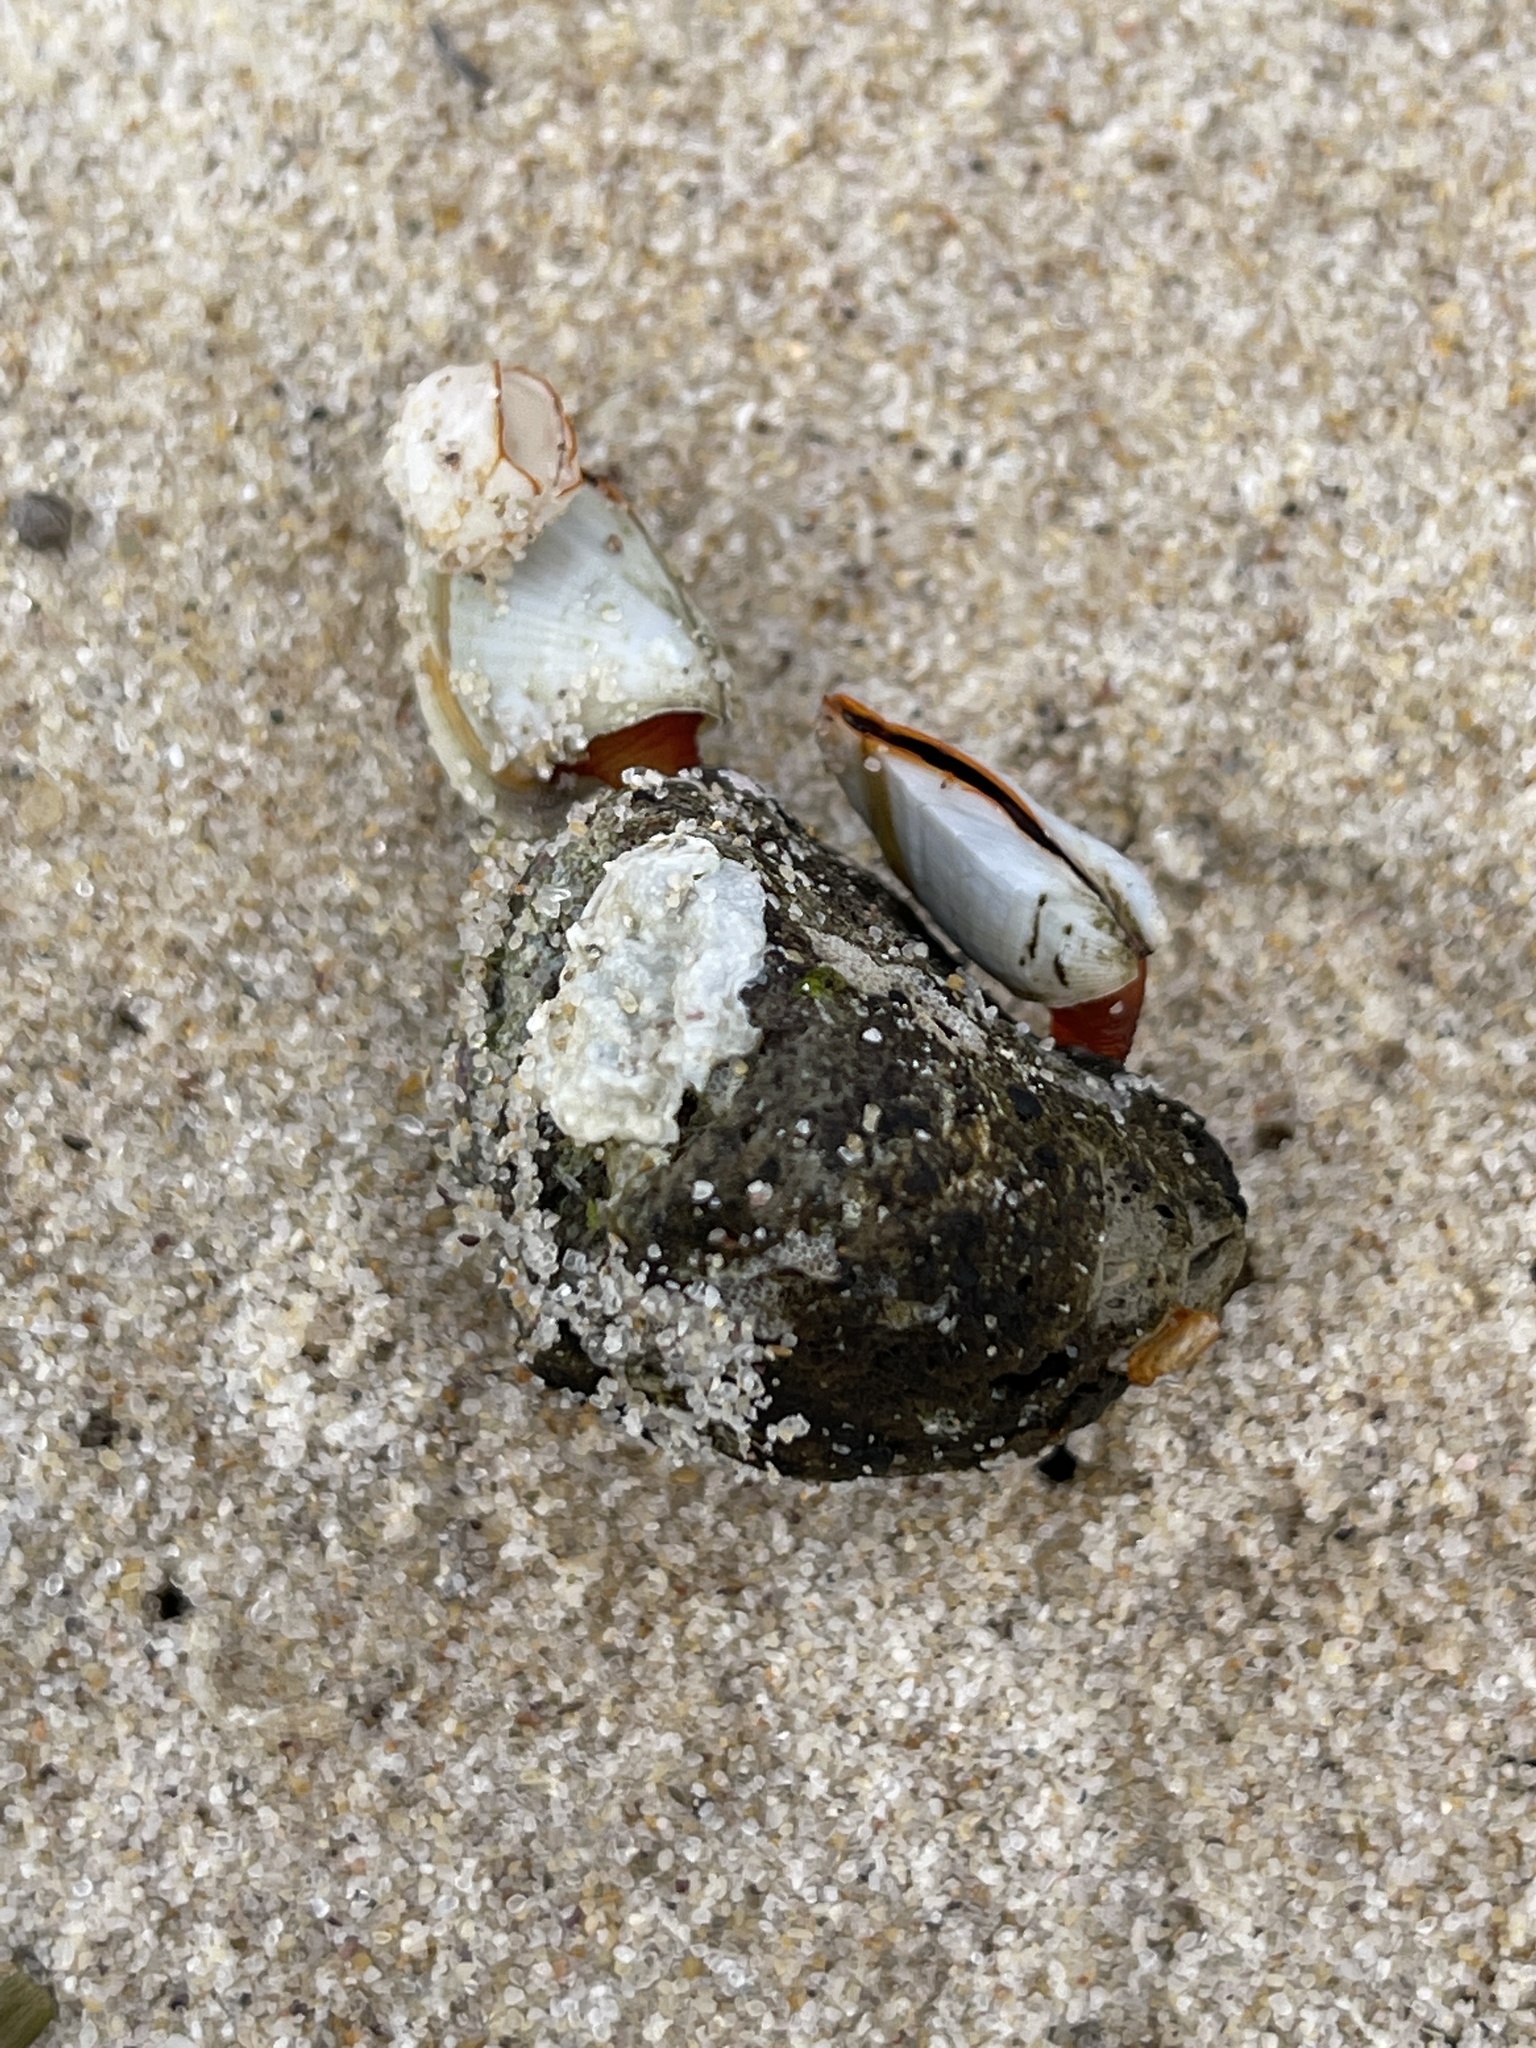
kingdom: Animalia
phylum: Arthropoda
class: Maxillopoda
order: Pedunculata
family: Lepadidae
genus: Lepas
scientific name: Lepas anserifera
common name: Goose barnacle
